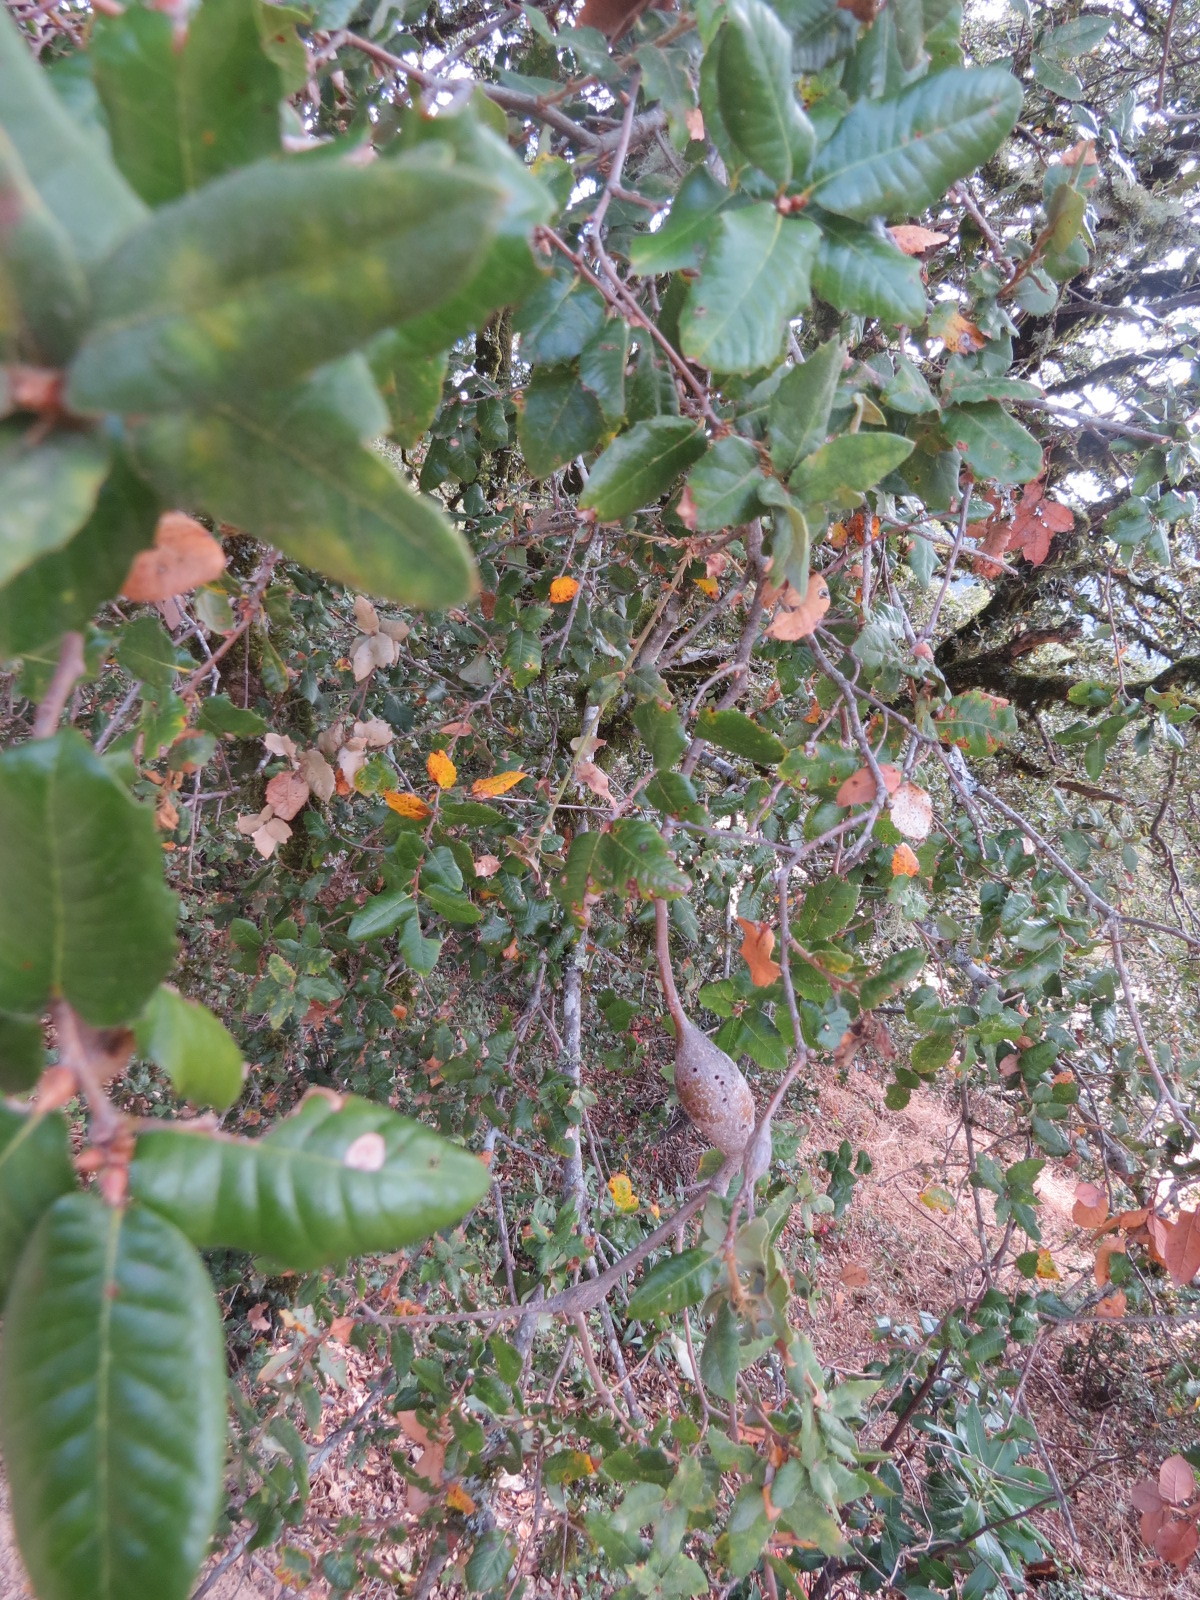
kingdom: Animalia
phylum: Arthropoda
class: Insecta
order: Hymenoptera
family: Cynipidae
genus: Disholcaspis
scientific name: Disholcaspis spectabilis
